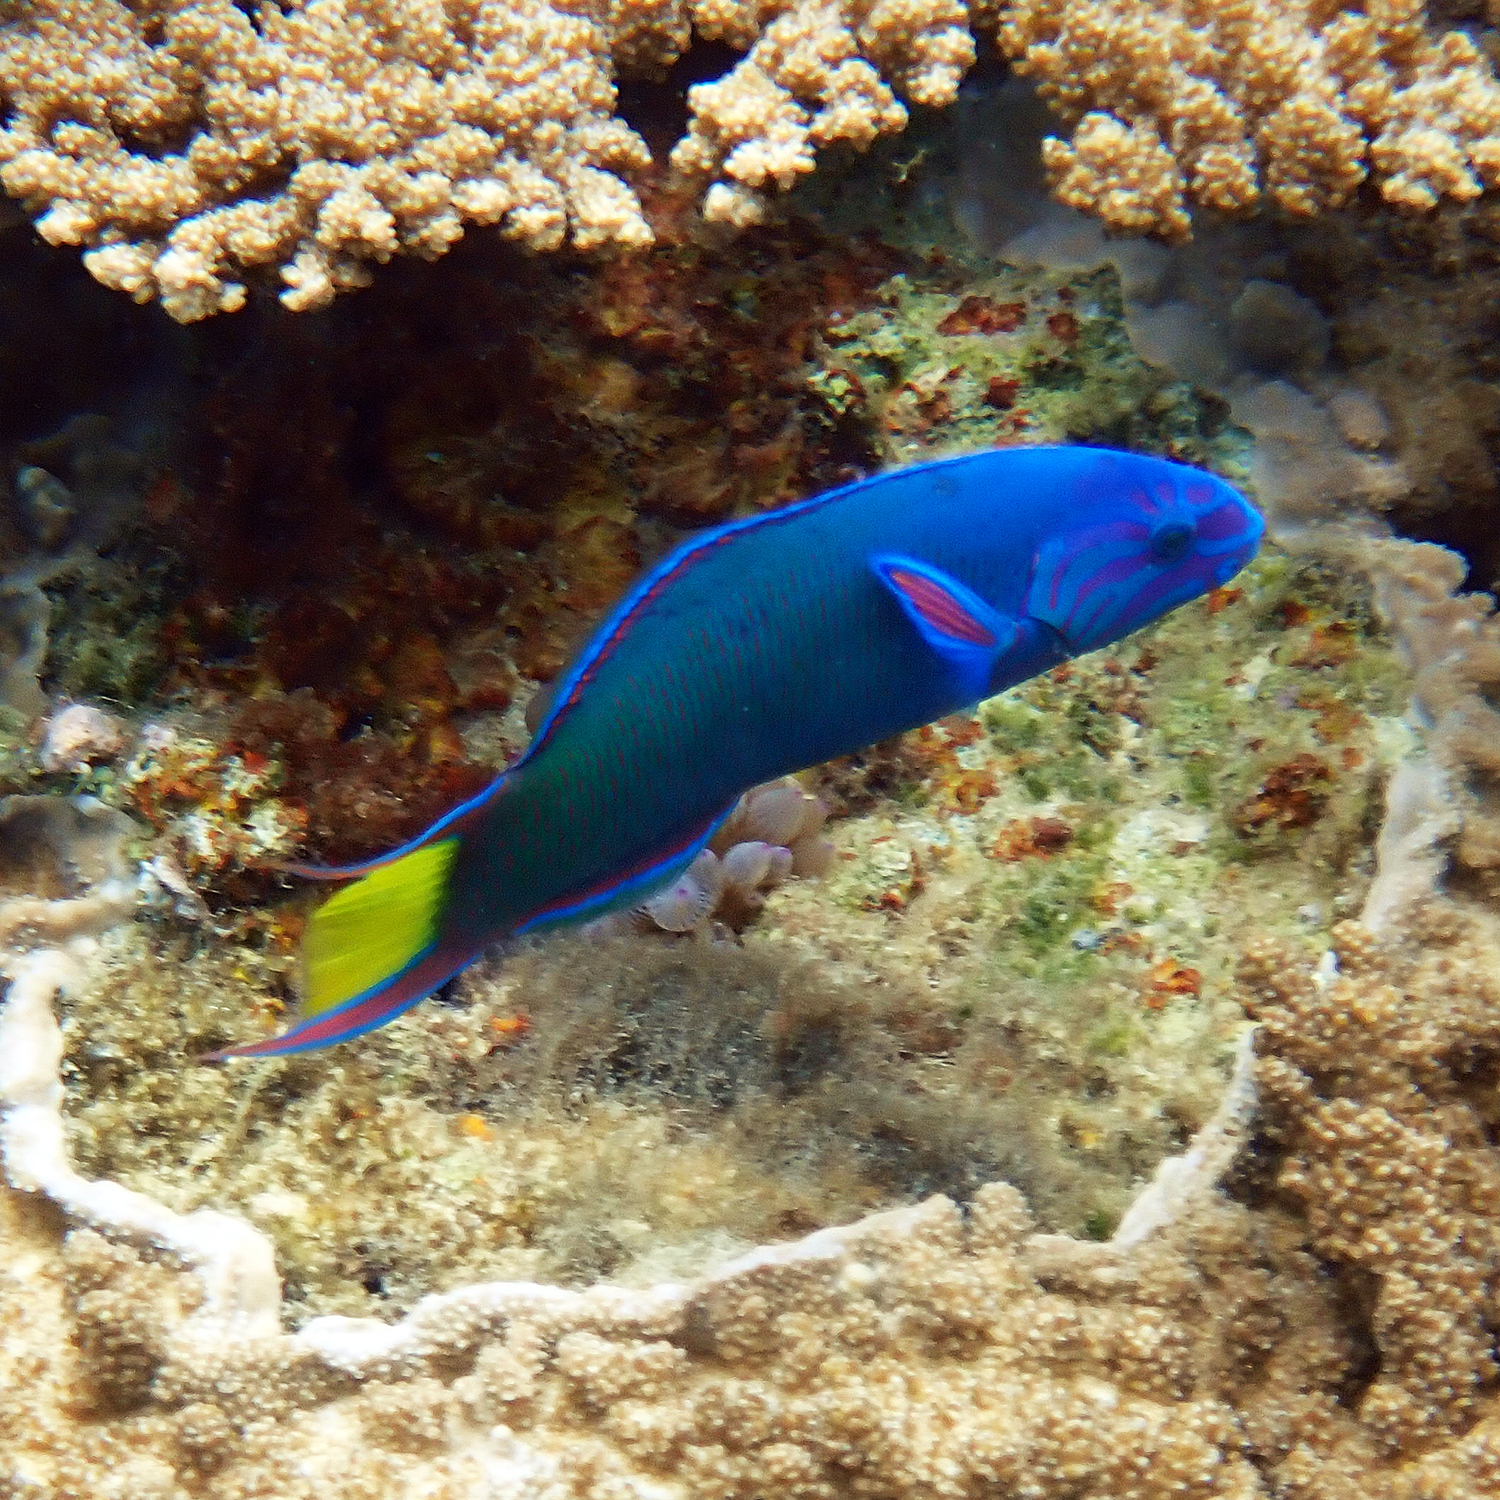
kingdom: Animalia
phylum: Chordata
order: Perciformes
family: Labridae
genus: Thalassoma
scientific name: Thalassoma lunare
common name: Blue wrasse
